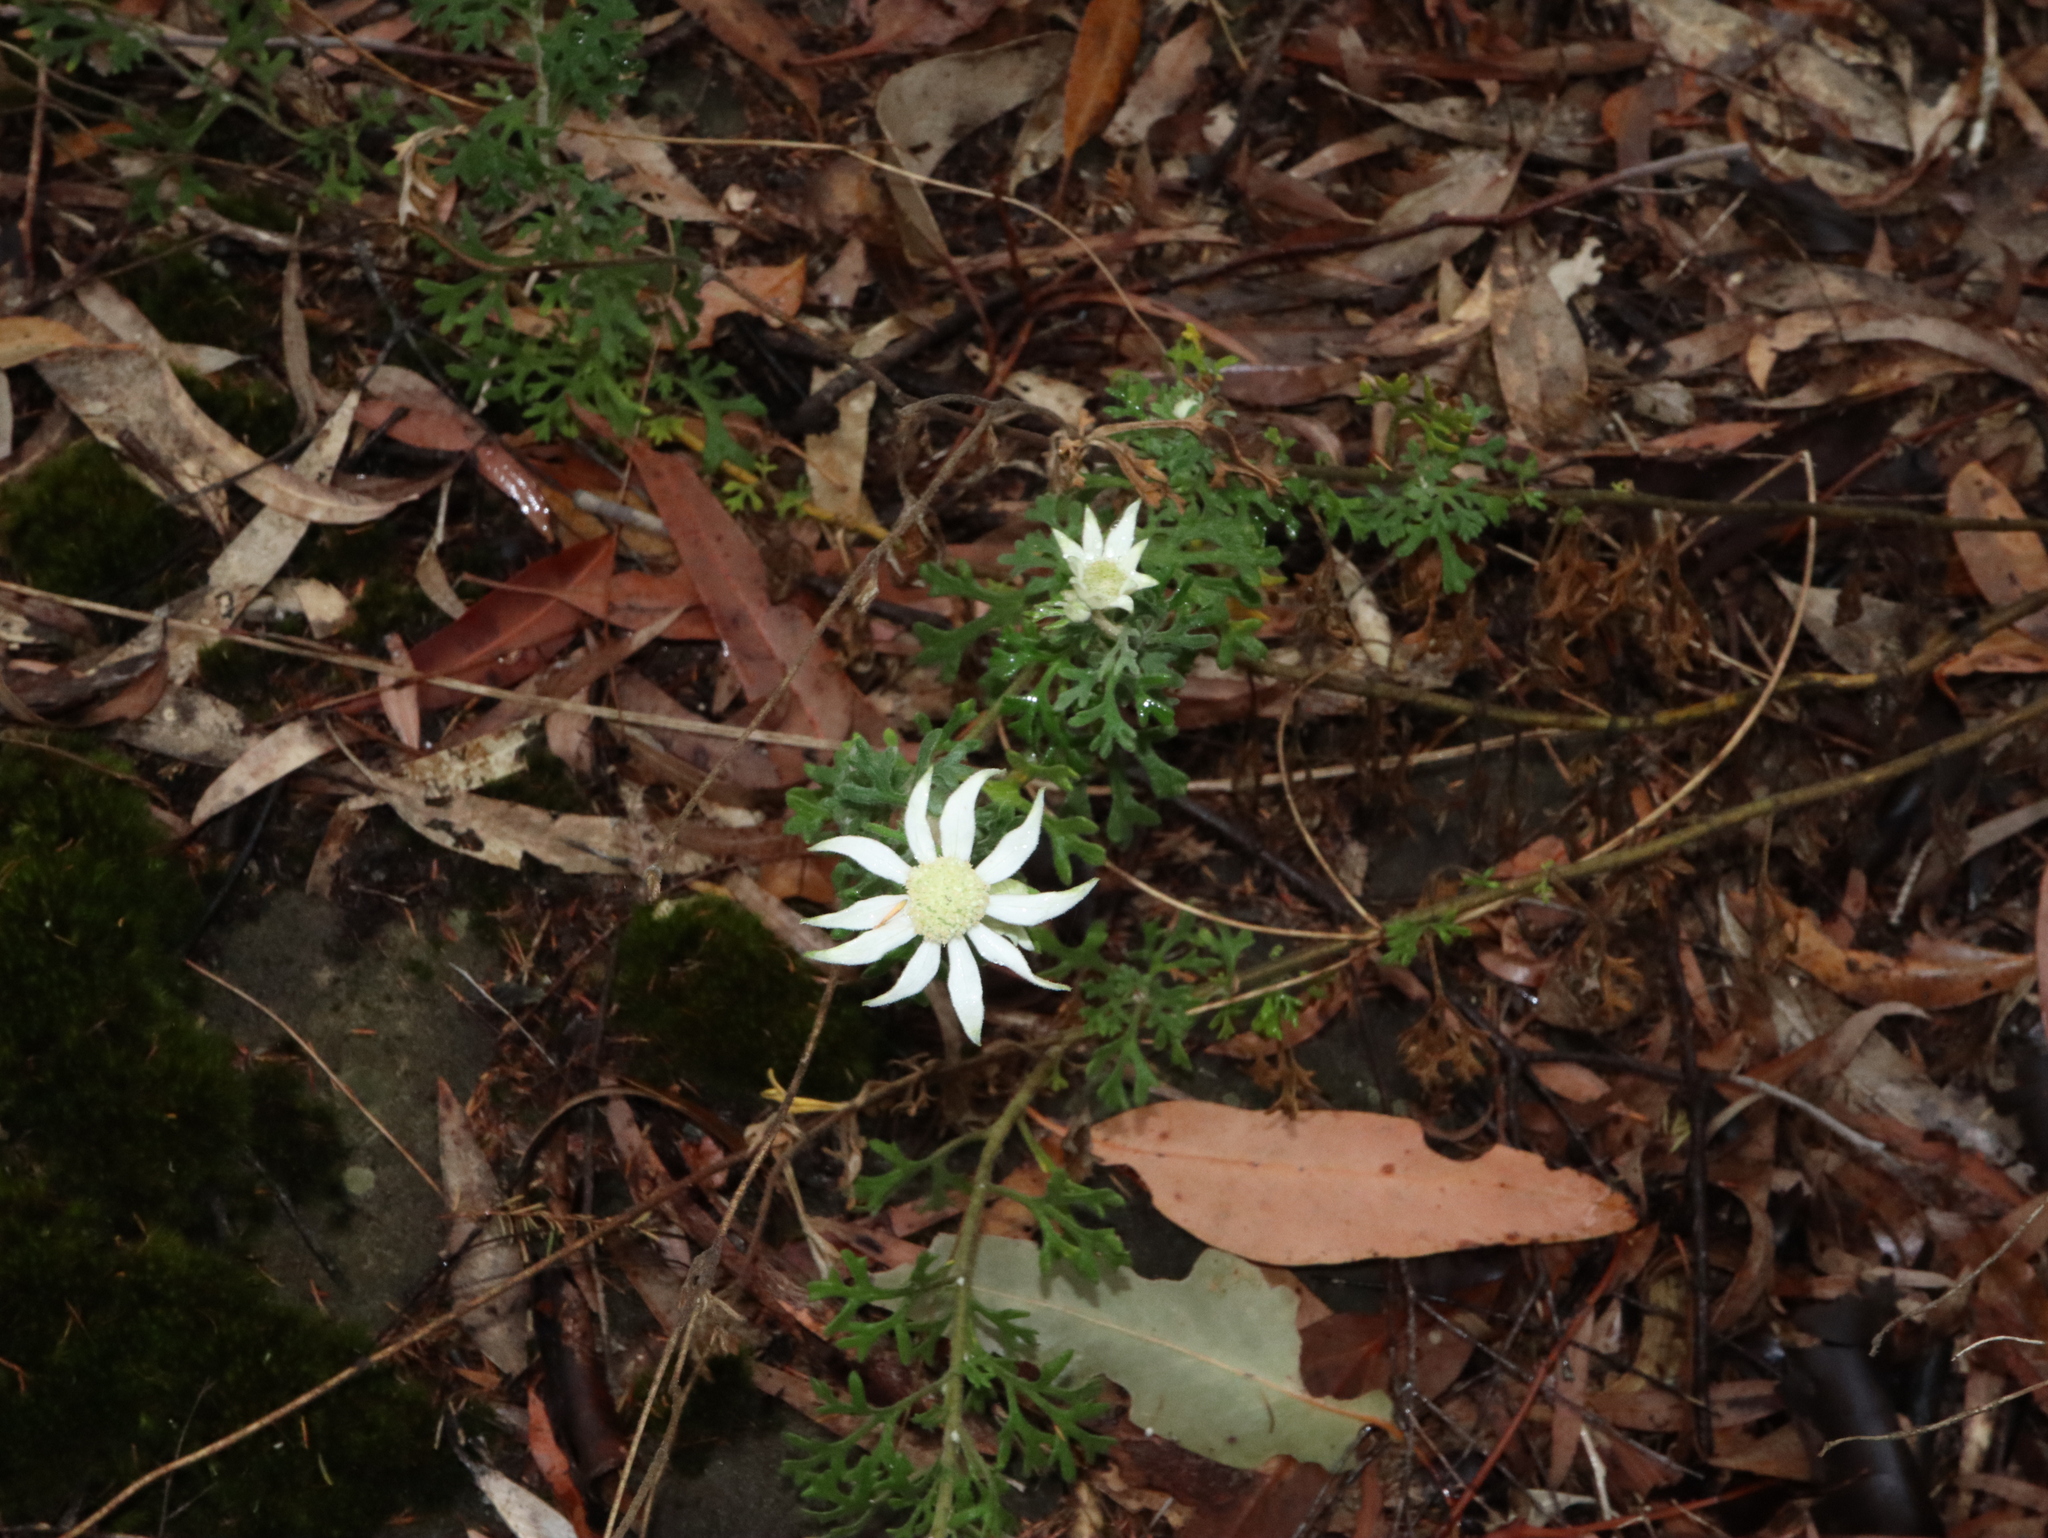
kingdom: Plantae
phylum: Tracheophyta
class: Magnoliopsida
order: Apiales
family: Apiaceae
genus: Actinotus
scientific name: Actinotus helianthi
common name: Flannel-flower
